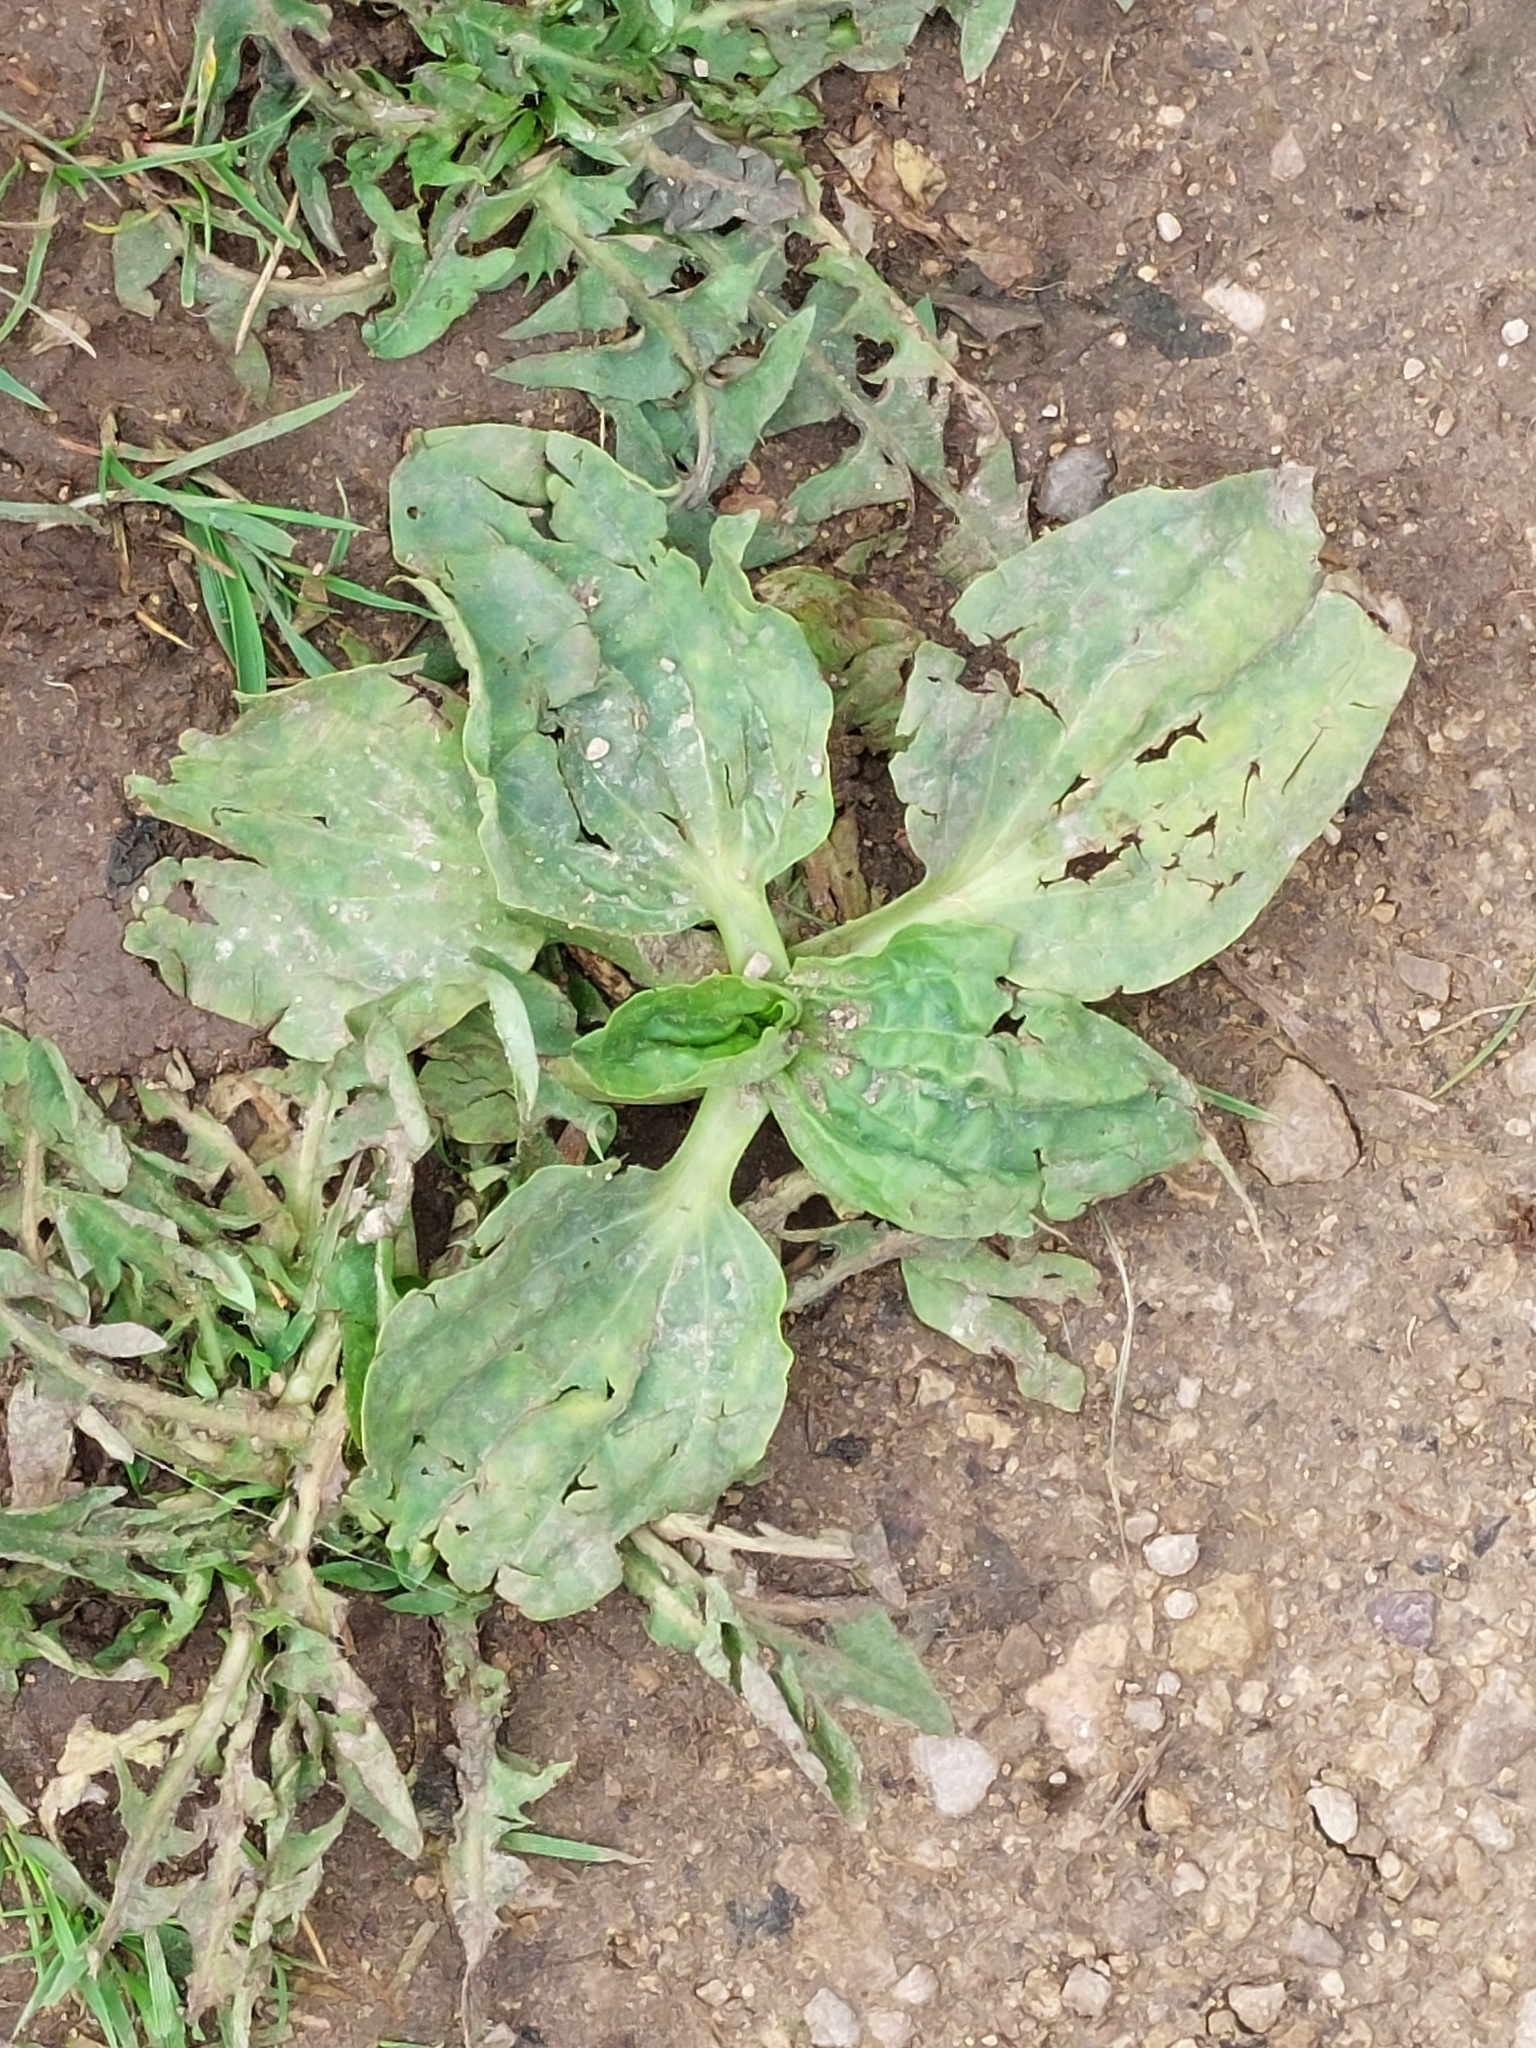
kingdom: Plantae
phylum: Tracheophyta
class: Magnoliopsida
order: Lamiales
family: Plantaginaceae
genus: Plantago
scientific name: Plantago major
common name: Common plantain
